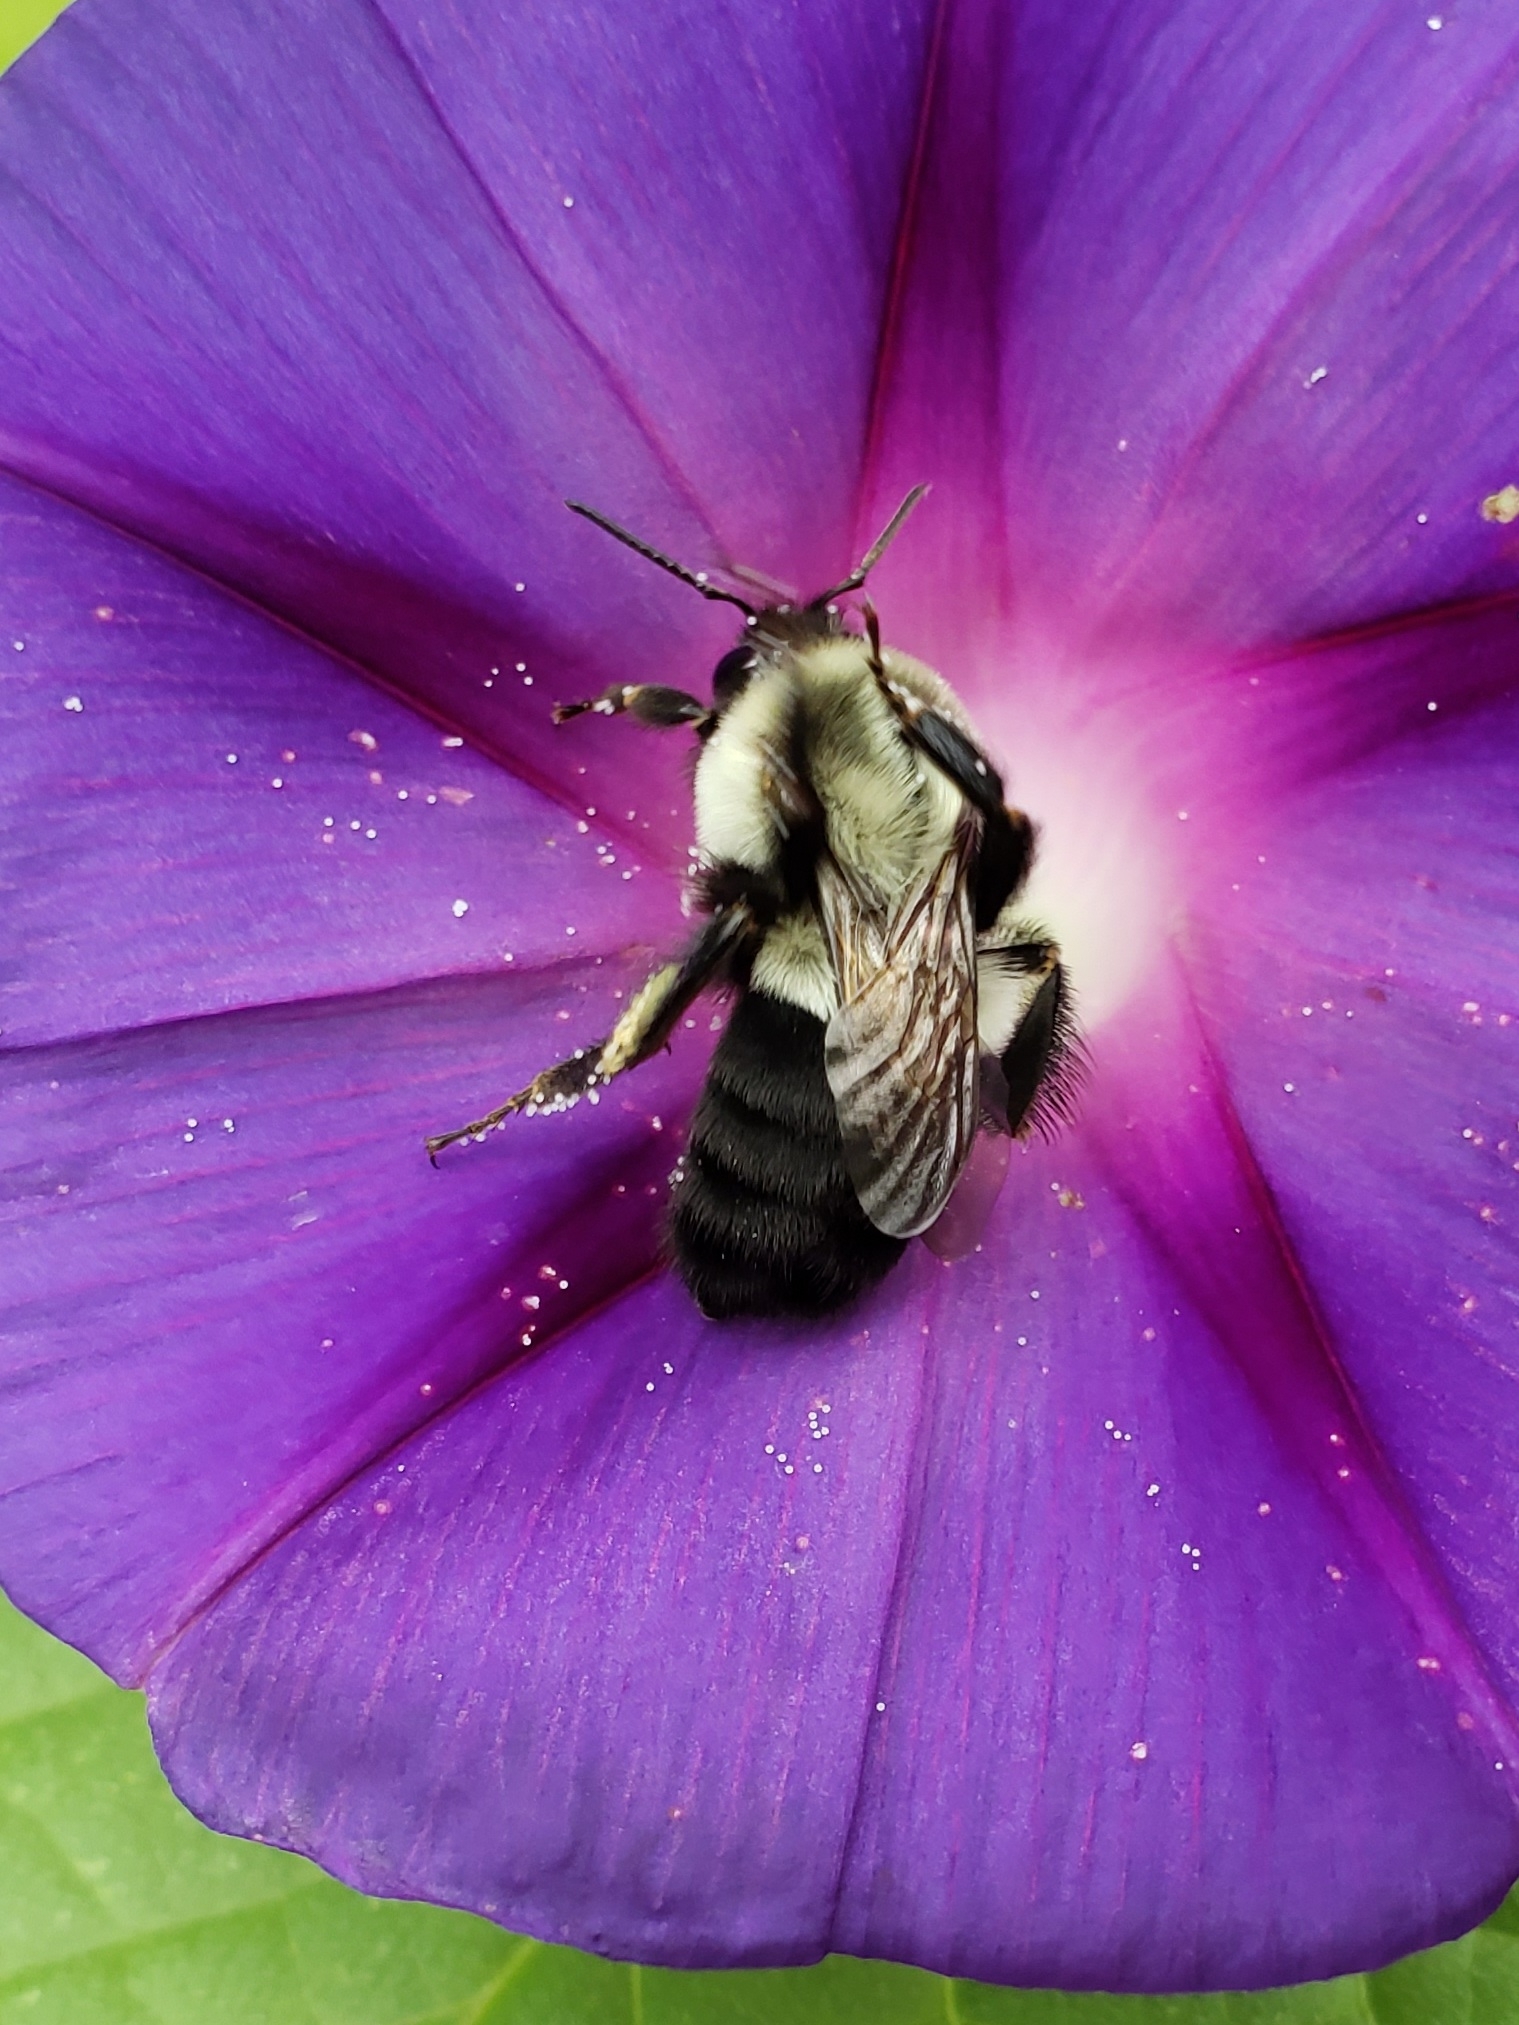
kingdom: Animalia
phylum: Arthropoda
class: Insecta
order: Hymenoptera
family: Apidae
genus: Bombus
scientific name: Bombus impatiens
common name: Common eastern bumble bee
